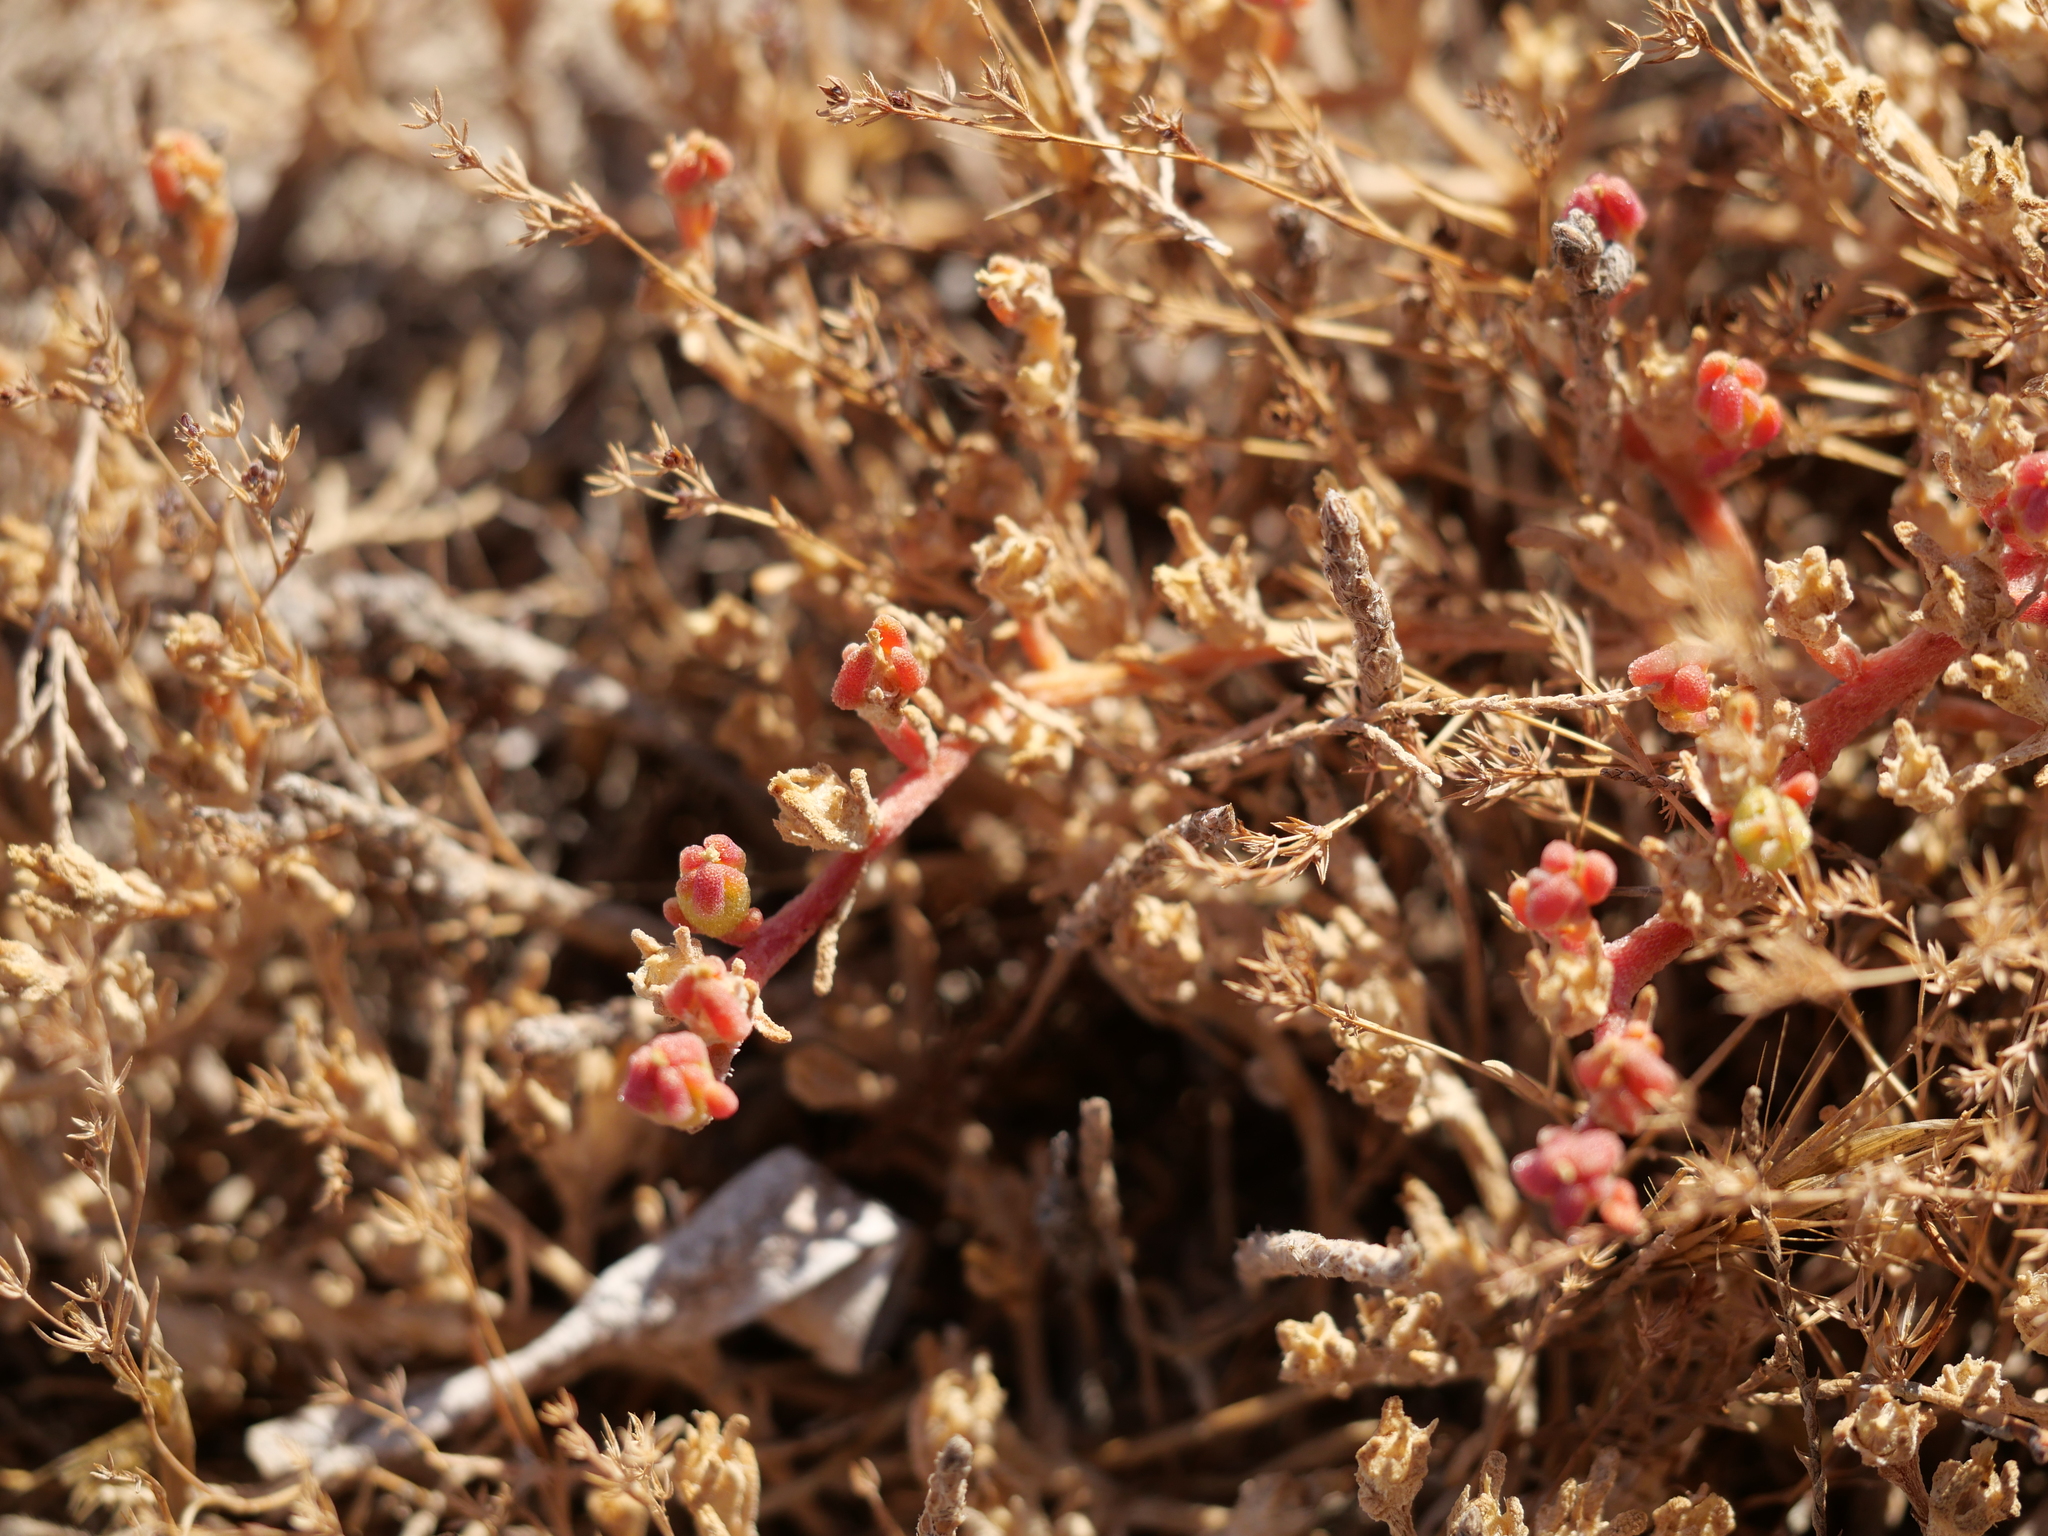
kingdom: Plantae
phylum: Tracheophyta
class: Magnoliopsida
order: Caryophyllales
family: Aizoaceae
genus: Mesembryanthemum
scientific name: Mesembryanthemum nodiflorum
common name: Slenderleaf iceplant
